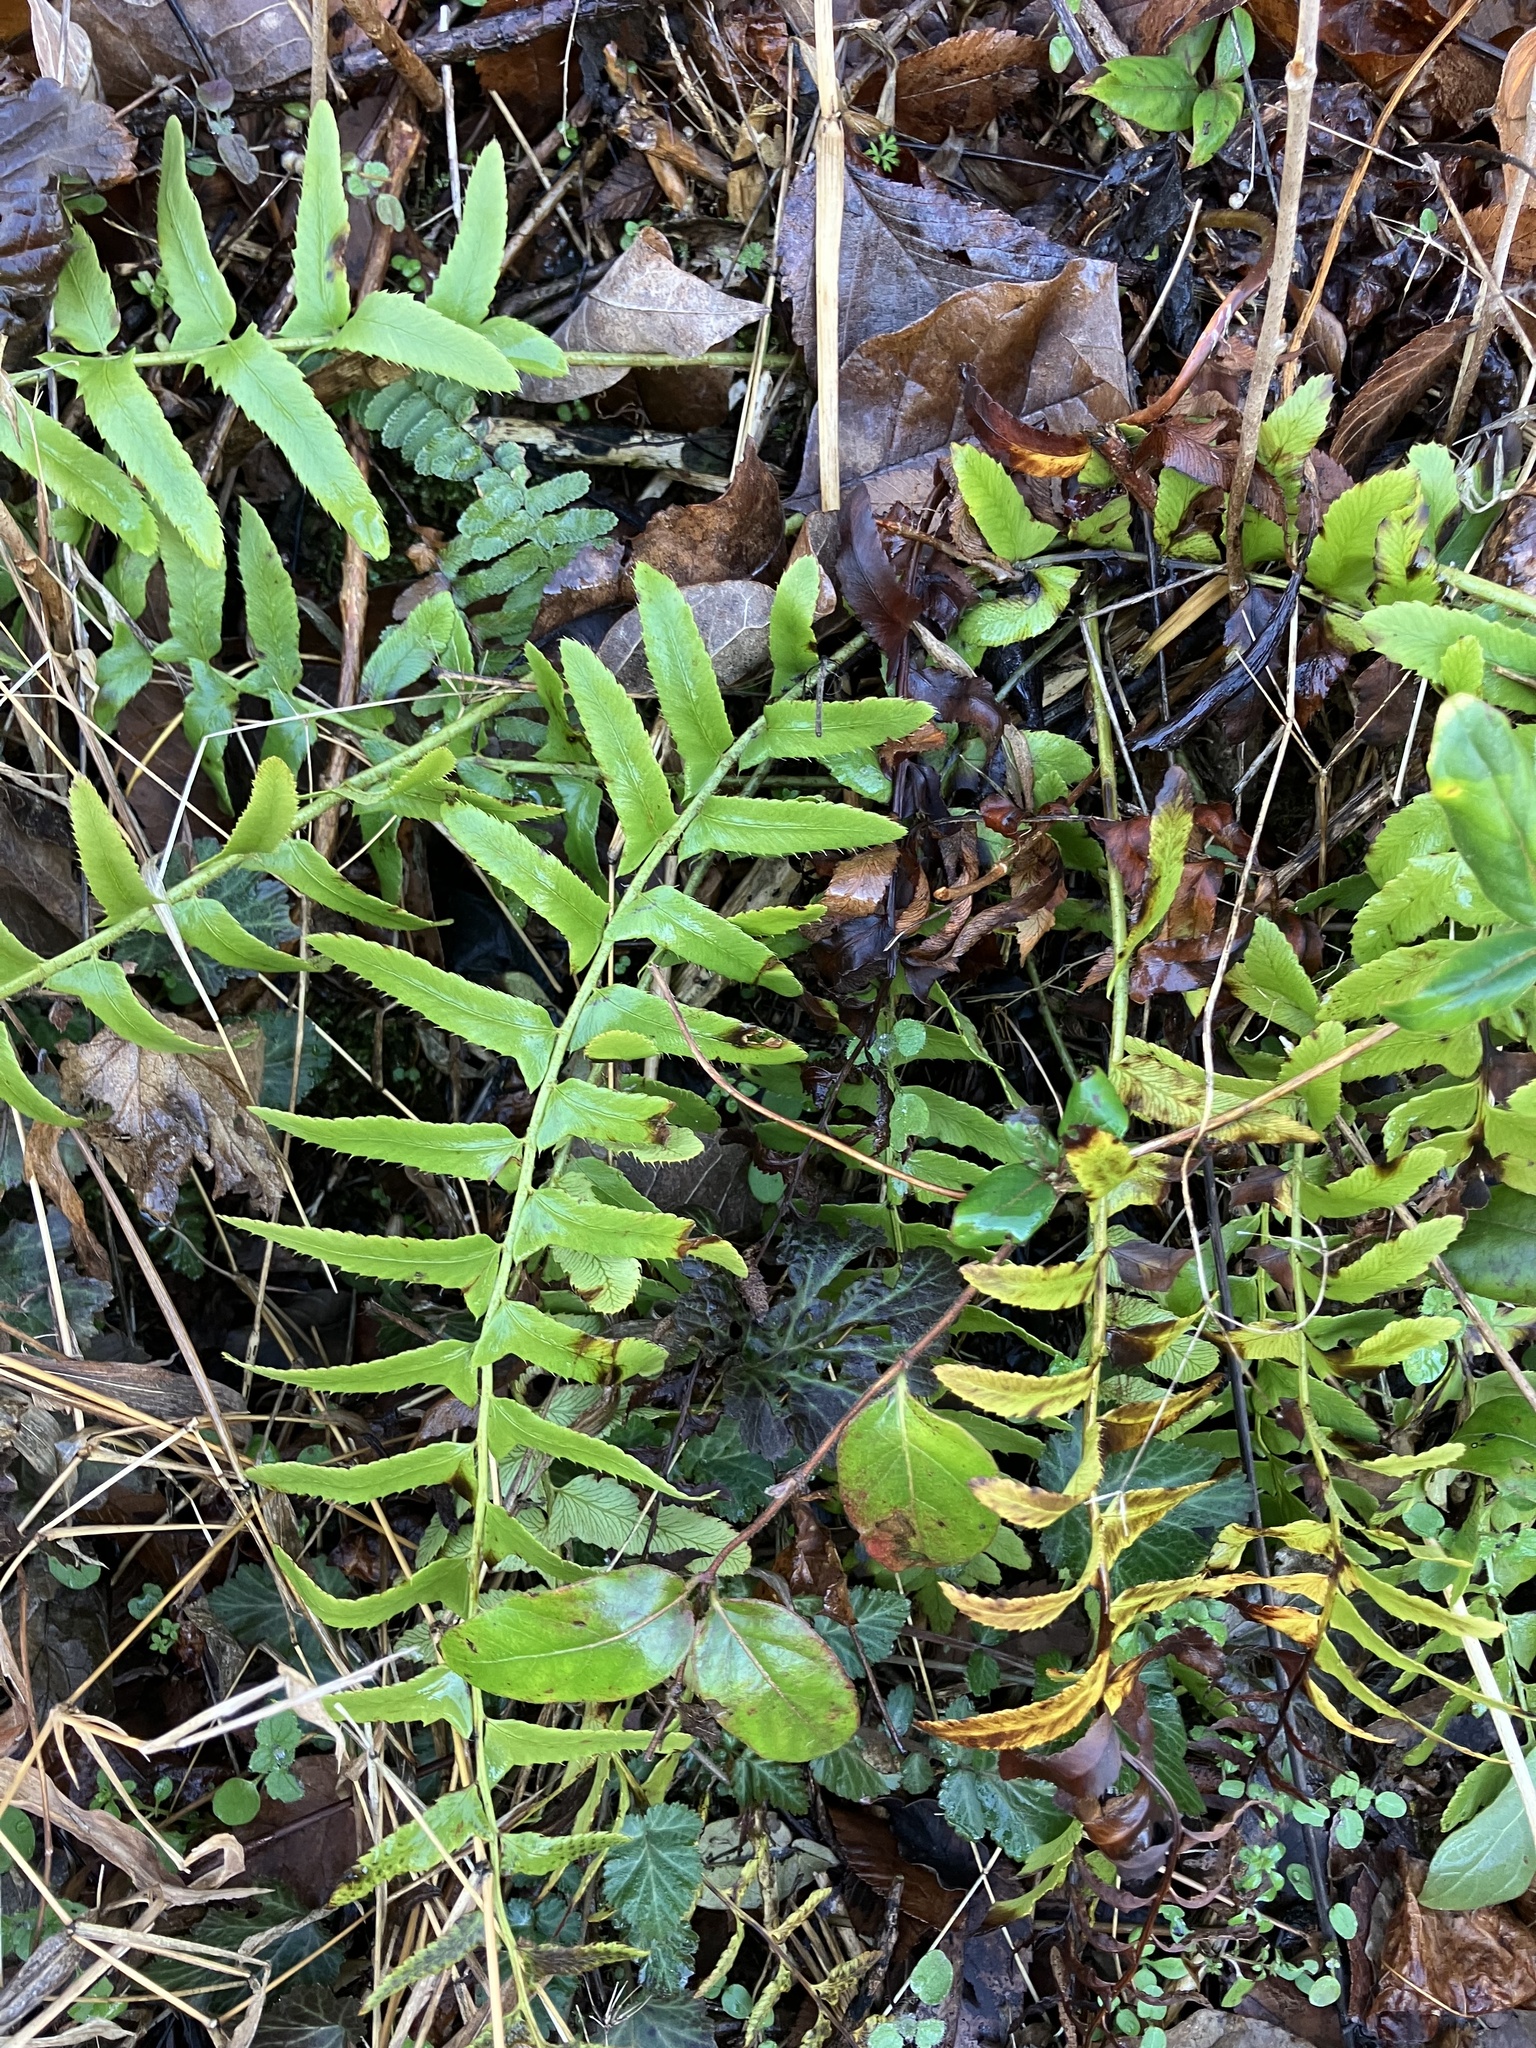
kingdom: Plantae
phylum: Tracheophyta
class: Polypodiopsida
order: Polypodiales
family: Dryopteridaceae
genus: Polystichum
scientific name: Polystichum acrostichoides
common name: Christmas fern
